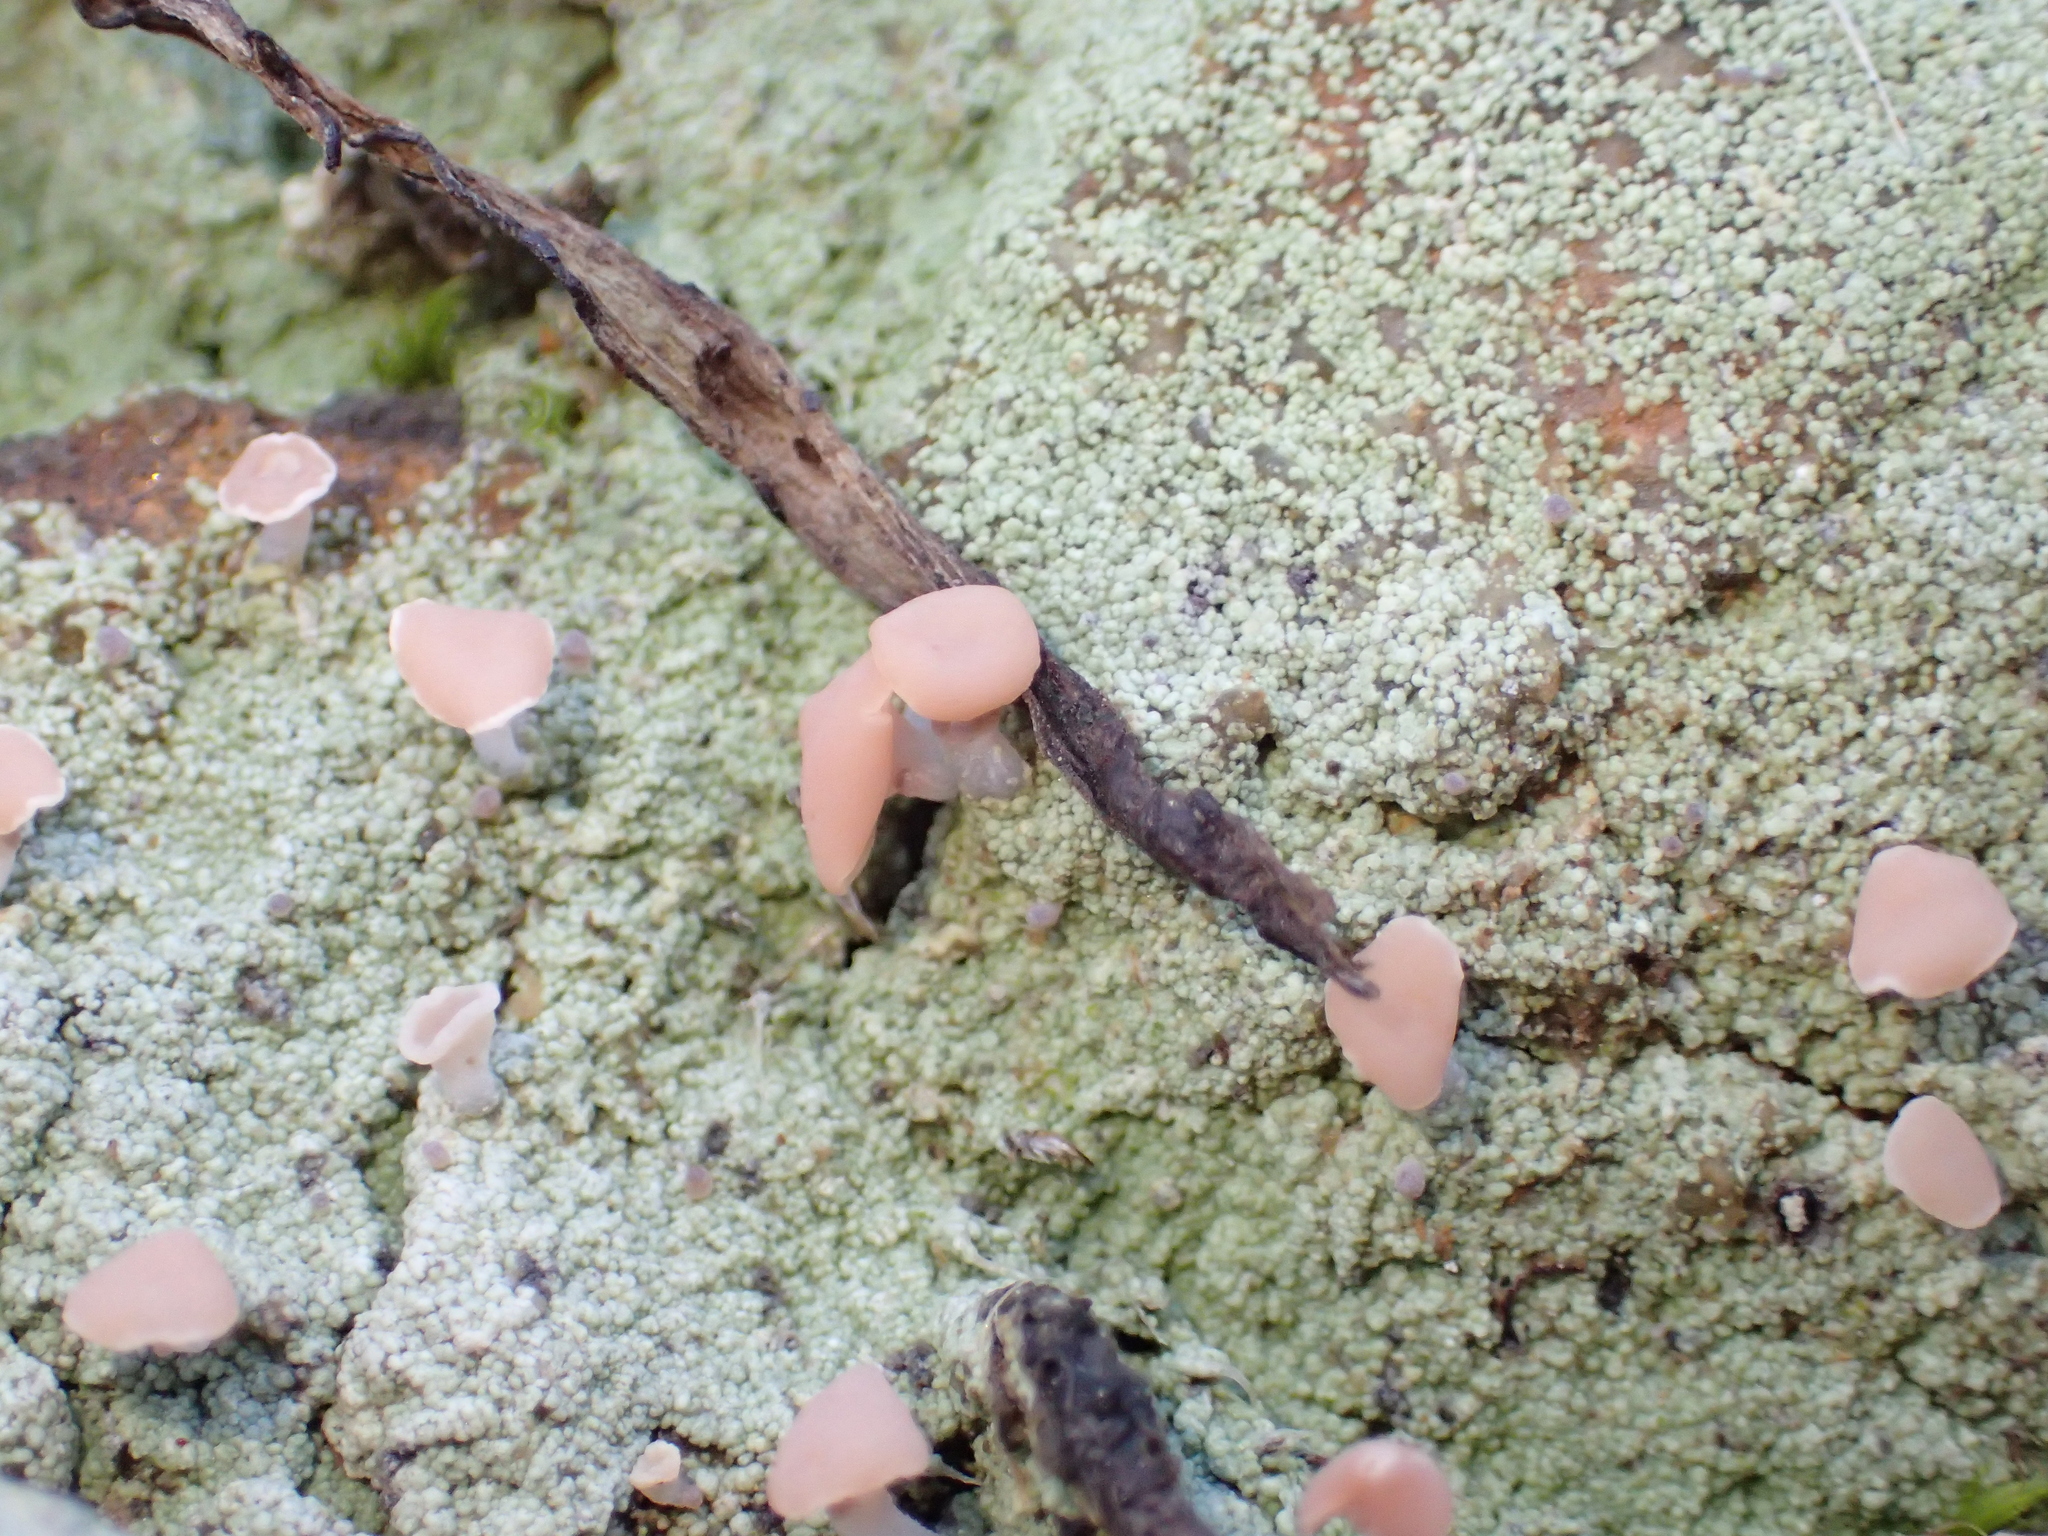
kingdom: Fungi
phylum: Ascomycota
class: Lecanoromycetes
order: Baeomycetales
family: Baeomycetaceae
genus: Baeomyces
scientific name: Baeomyces heteromorphus
